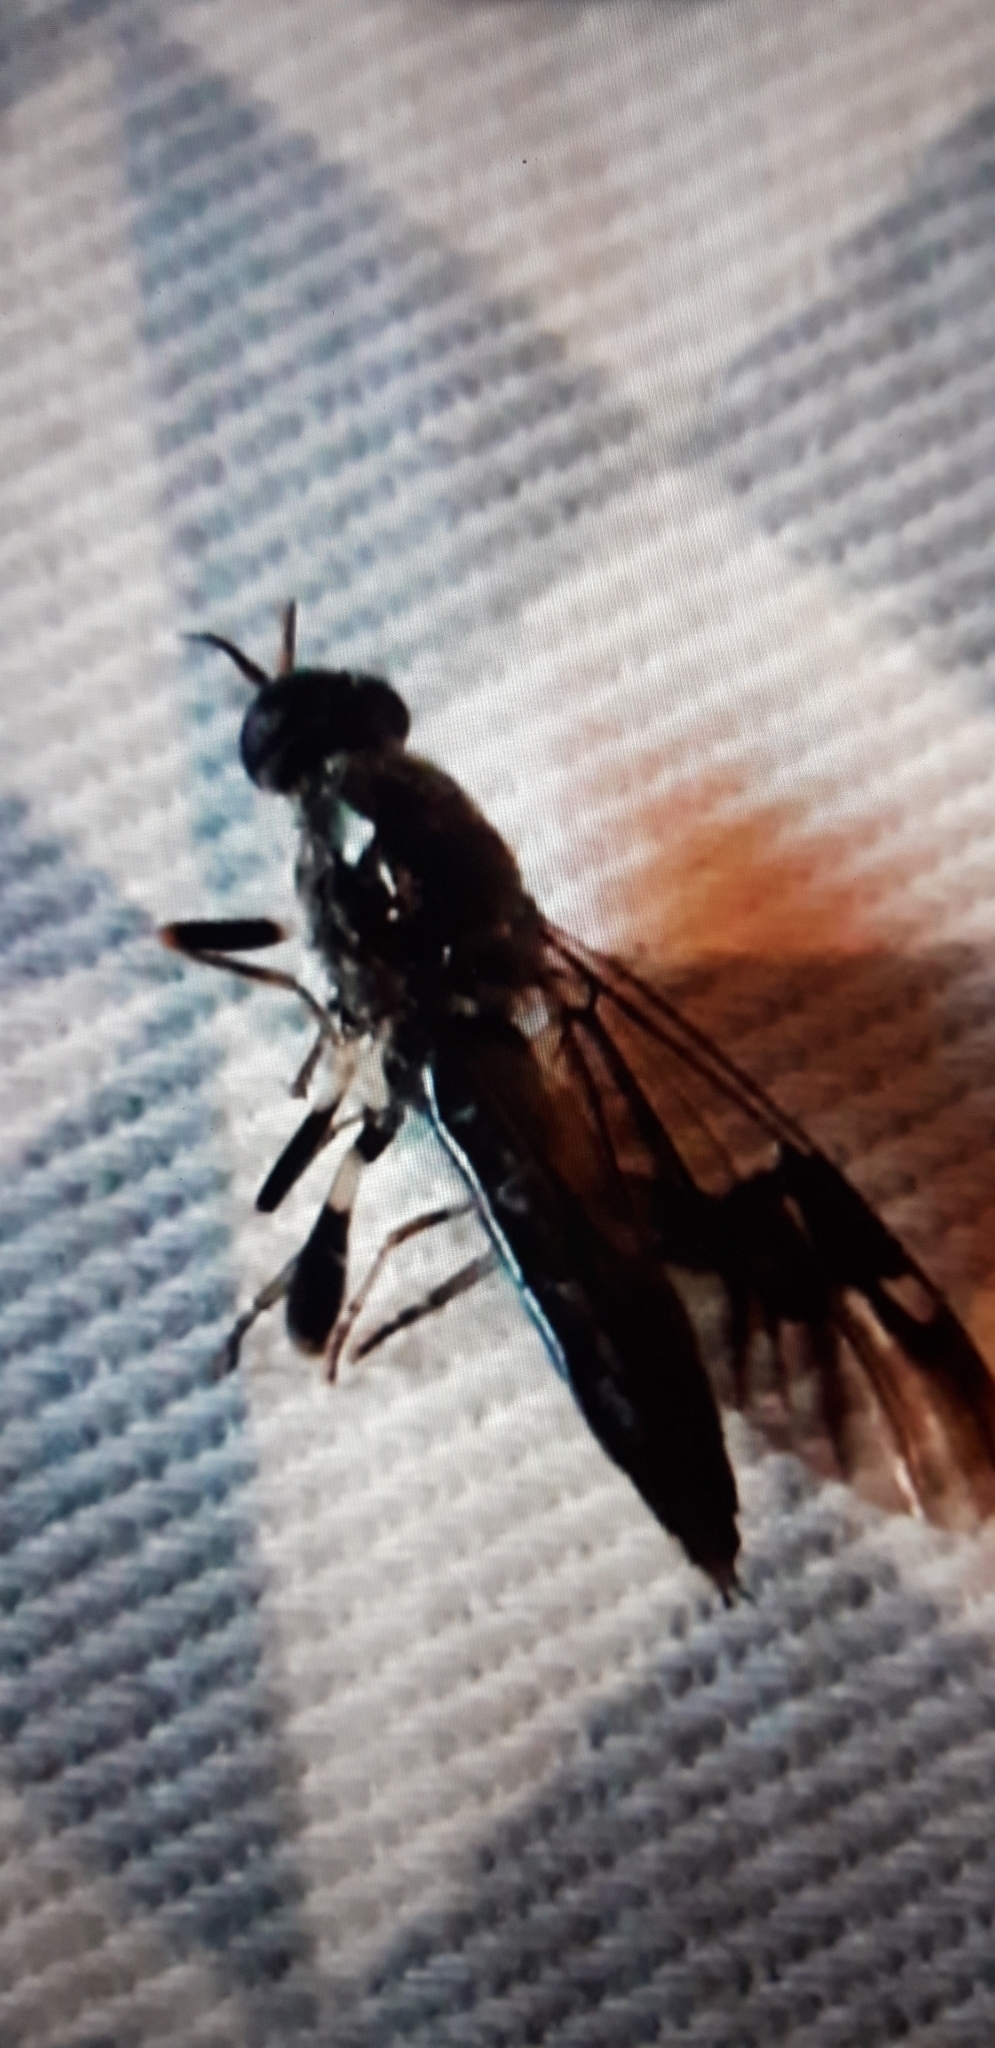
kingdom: Animalia
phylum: Arthropoda
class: Insecta
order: Diptera
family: Stratiomyidae
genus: Exaireta
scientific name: Exaireta spinigera
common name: Blue soldier fly
